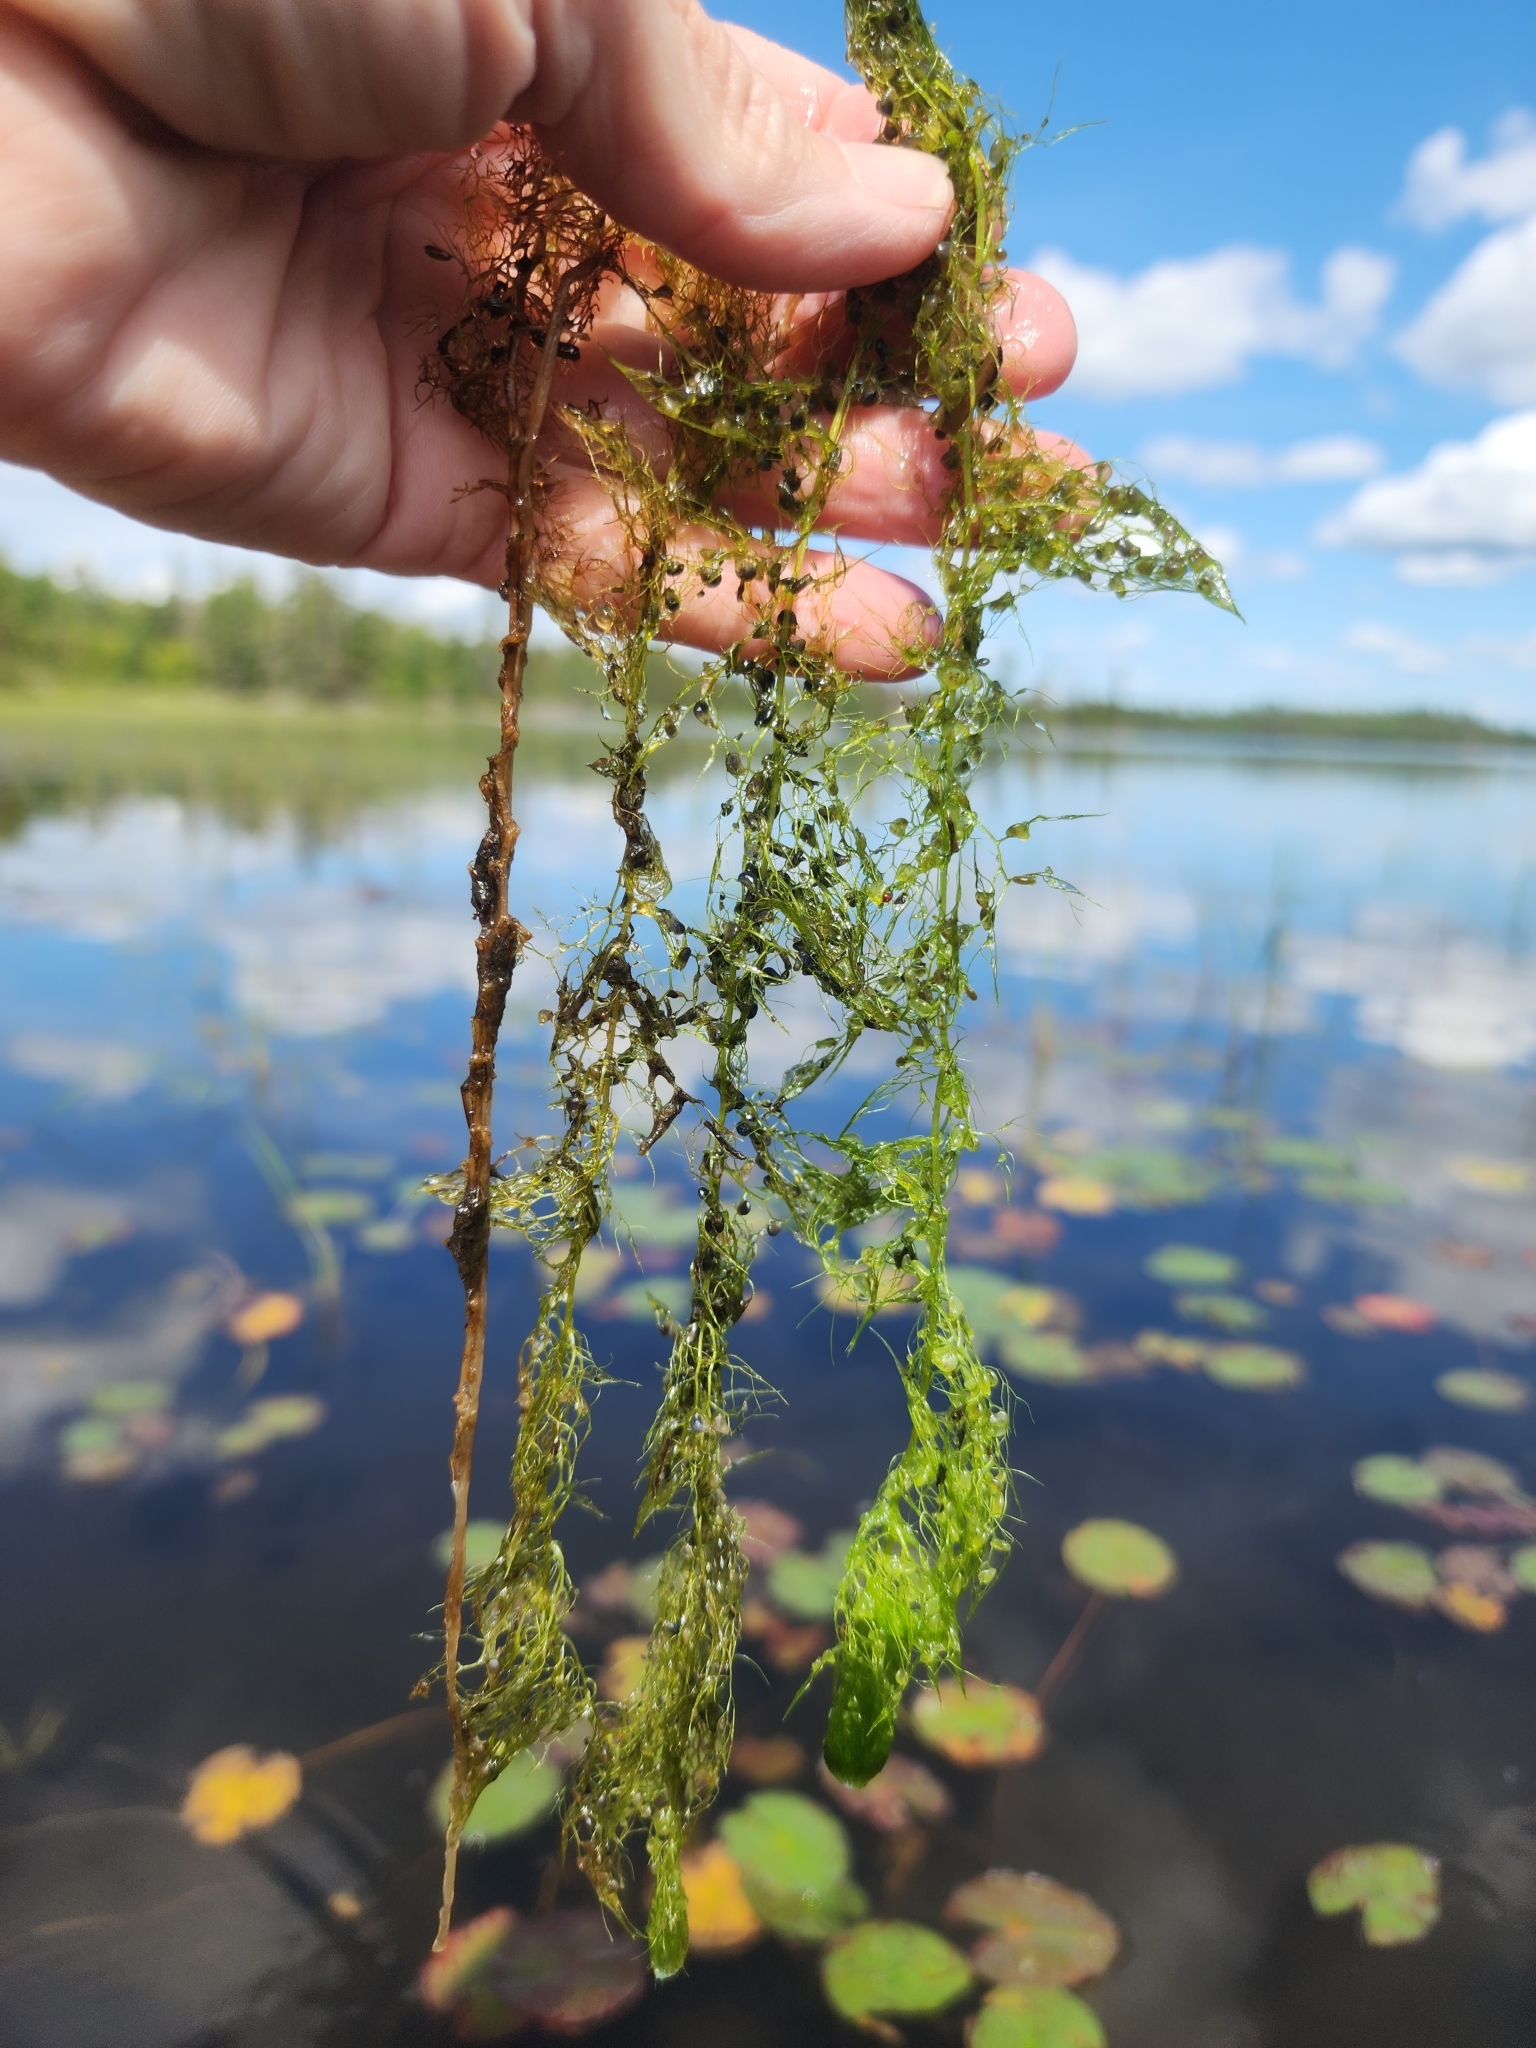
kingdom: Plantae
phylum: Tracheophyta
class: Magnoliopsida
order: Lamiales
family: Lentibulariaceae
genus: Utricularia
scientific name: Utricularia macrorhiza
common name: Common bladderwort
